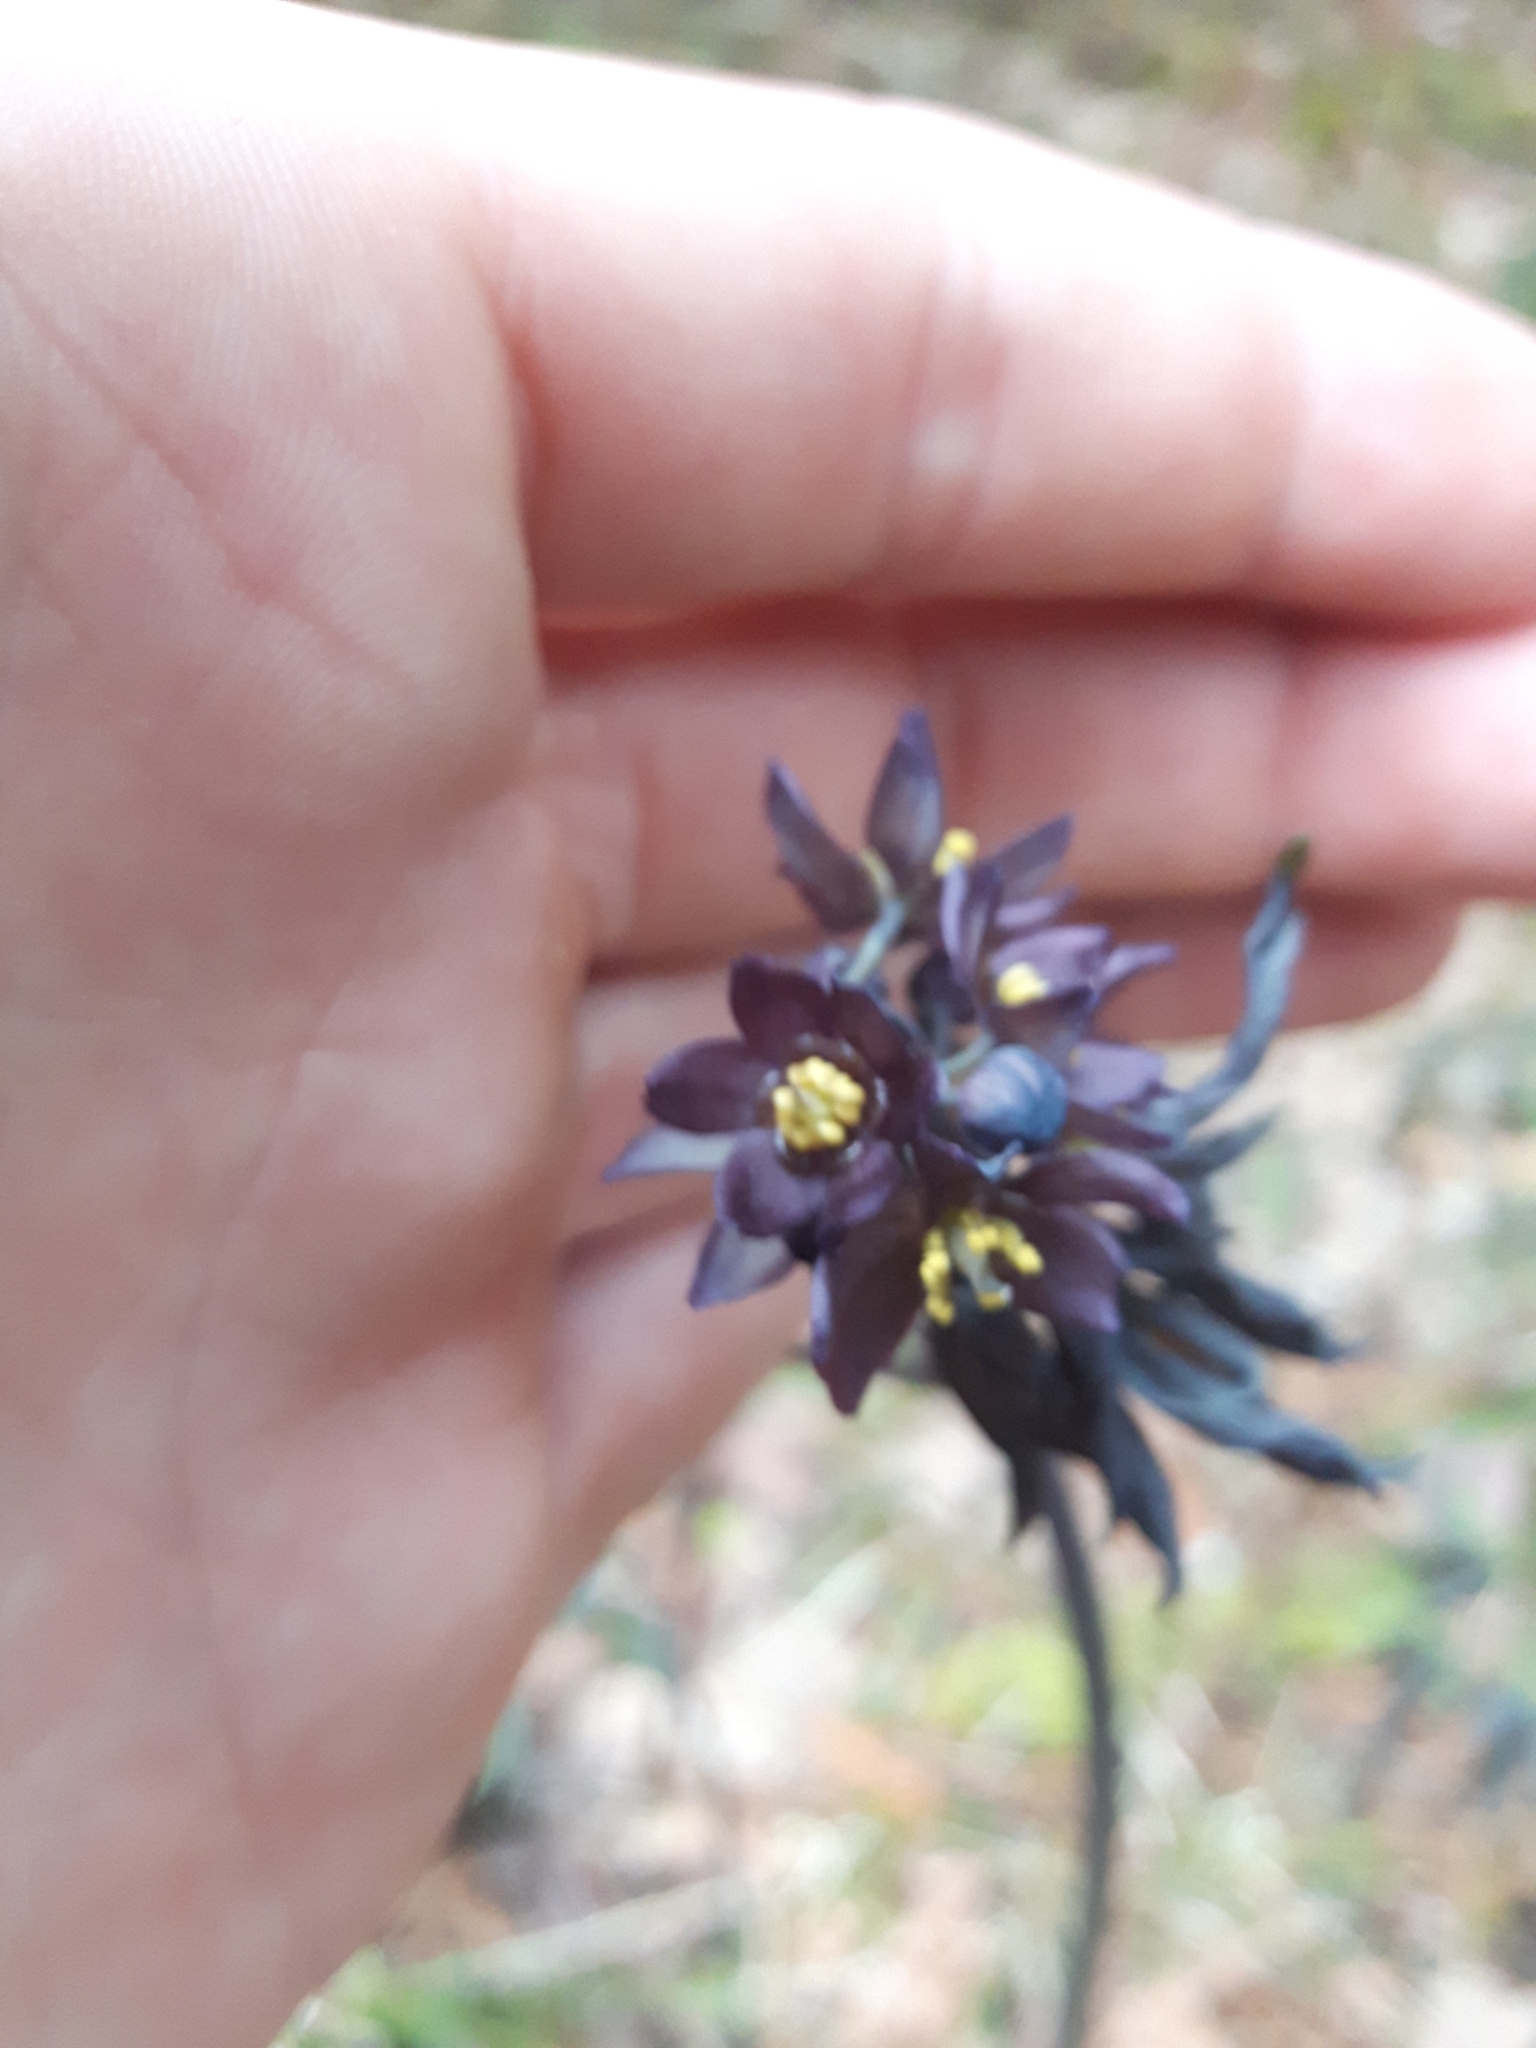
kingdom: Plantae
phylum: Tracheophyta
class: Magnoliopsida
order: Ranunculales
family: Berberidaceae
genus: Caulophyllum
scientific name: Caulophyllum giganteum
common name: Blue cohosh
